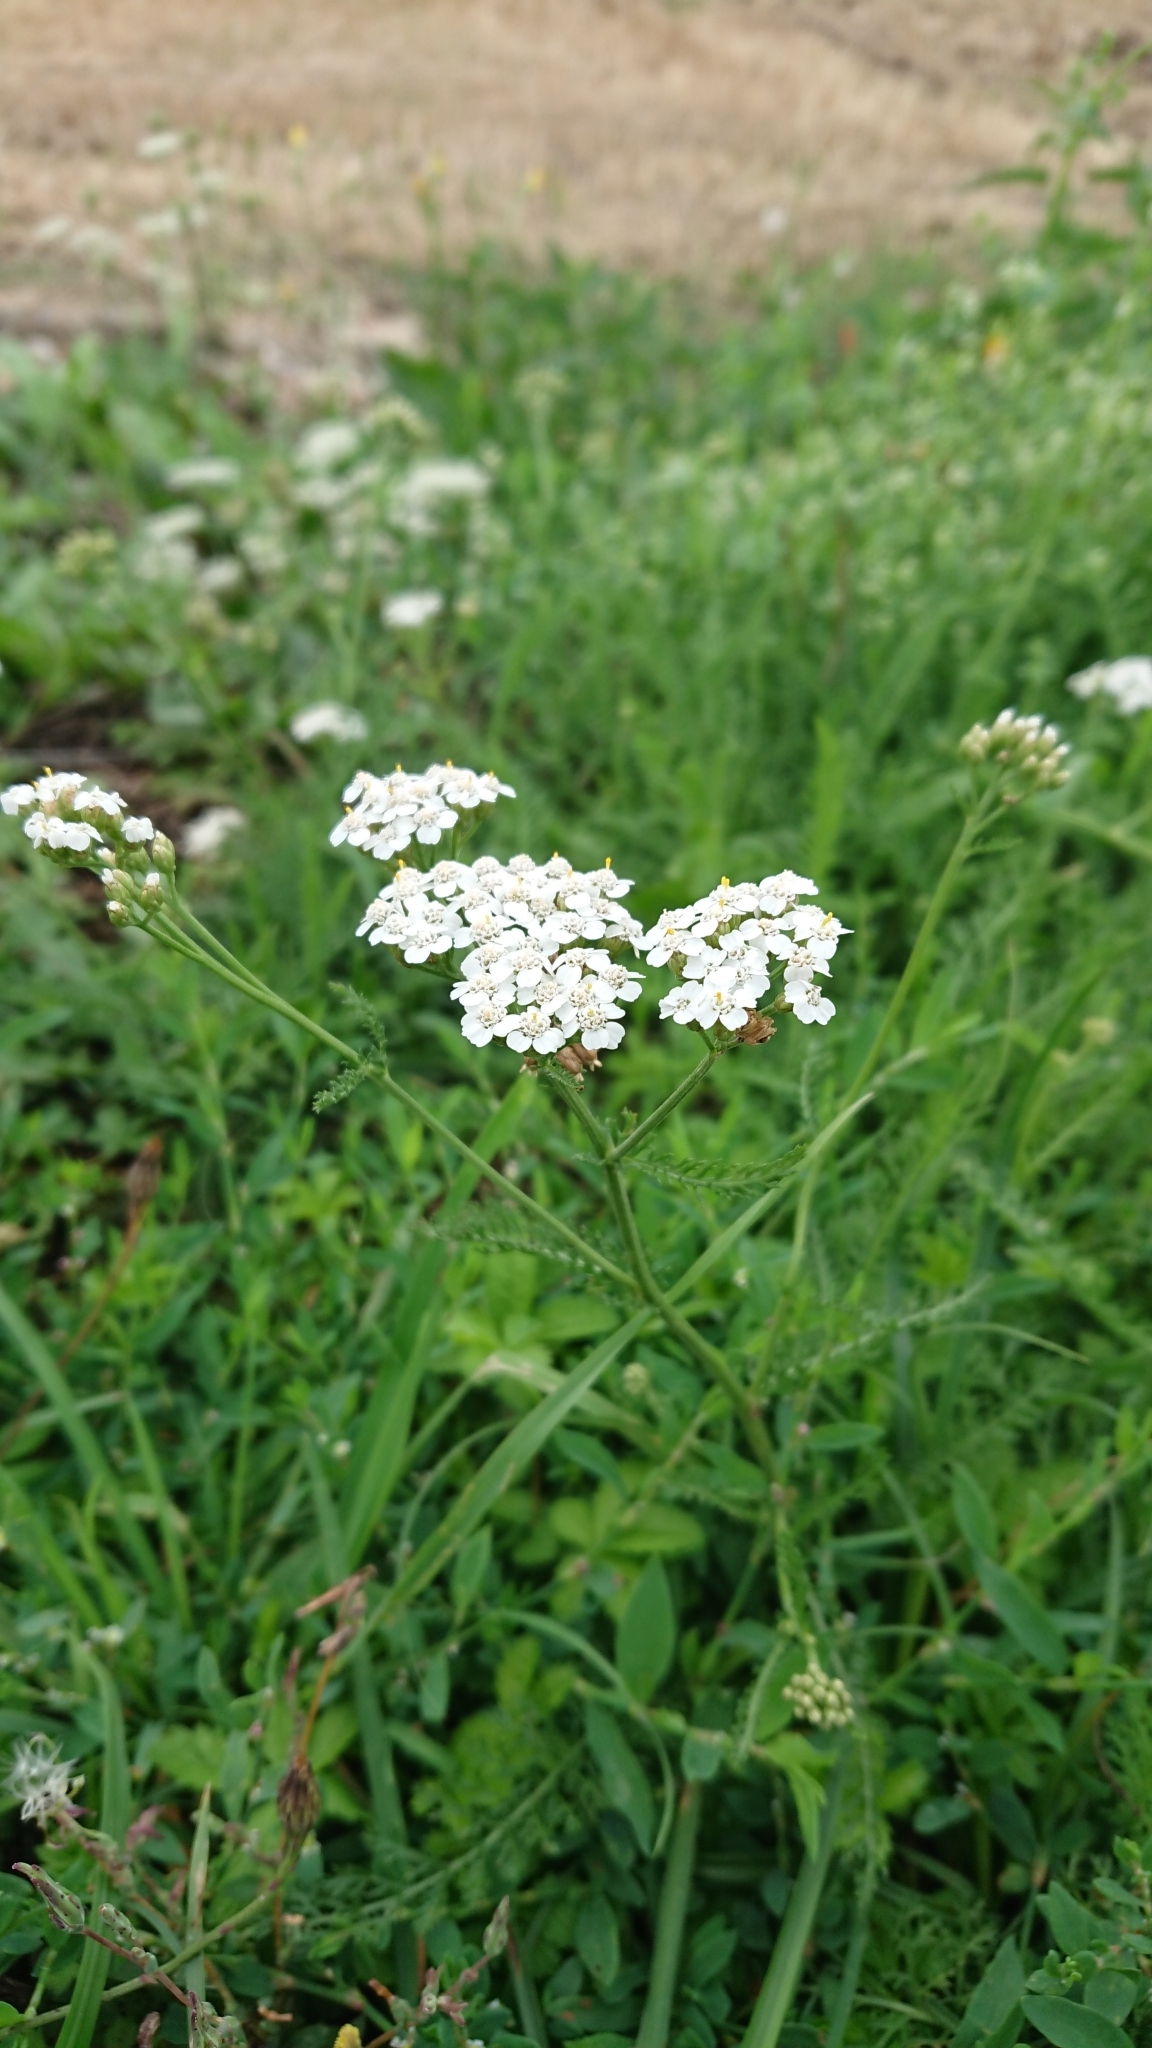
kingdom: Plantae
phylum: Tracheophyta
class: Magnoliopsida
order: Asterales
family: Asteraceae
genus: Achillea
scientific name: Achillea millefolium
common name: Yarrow
